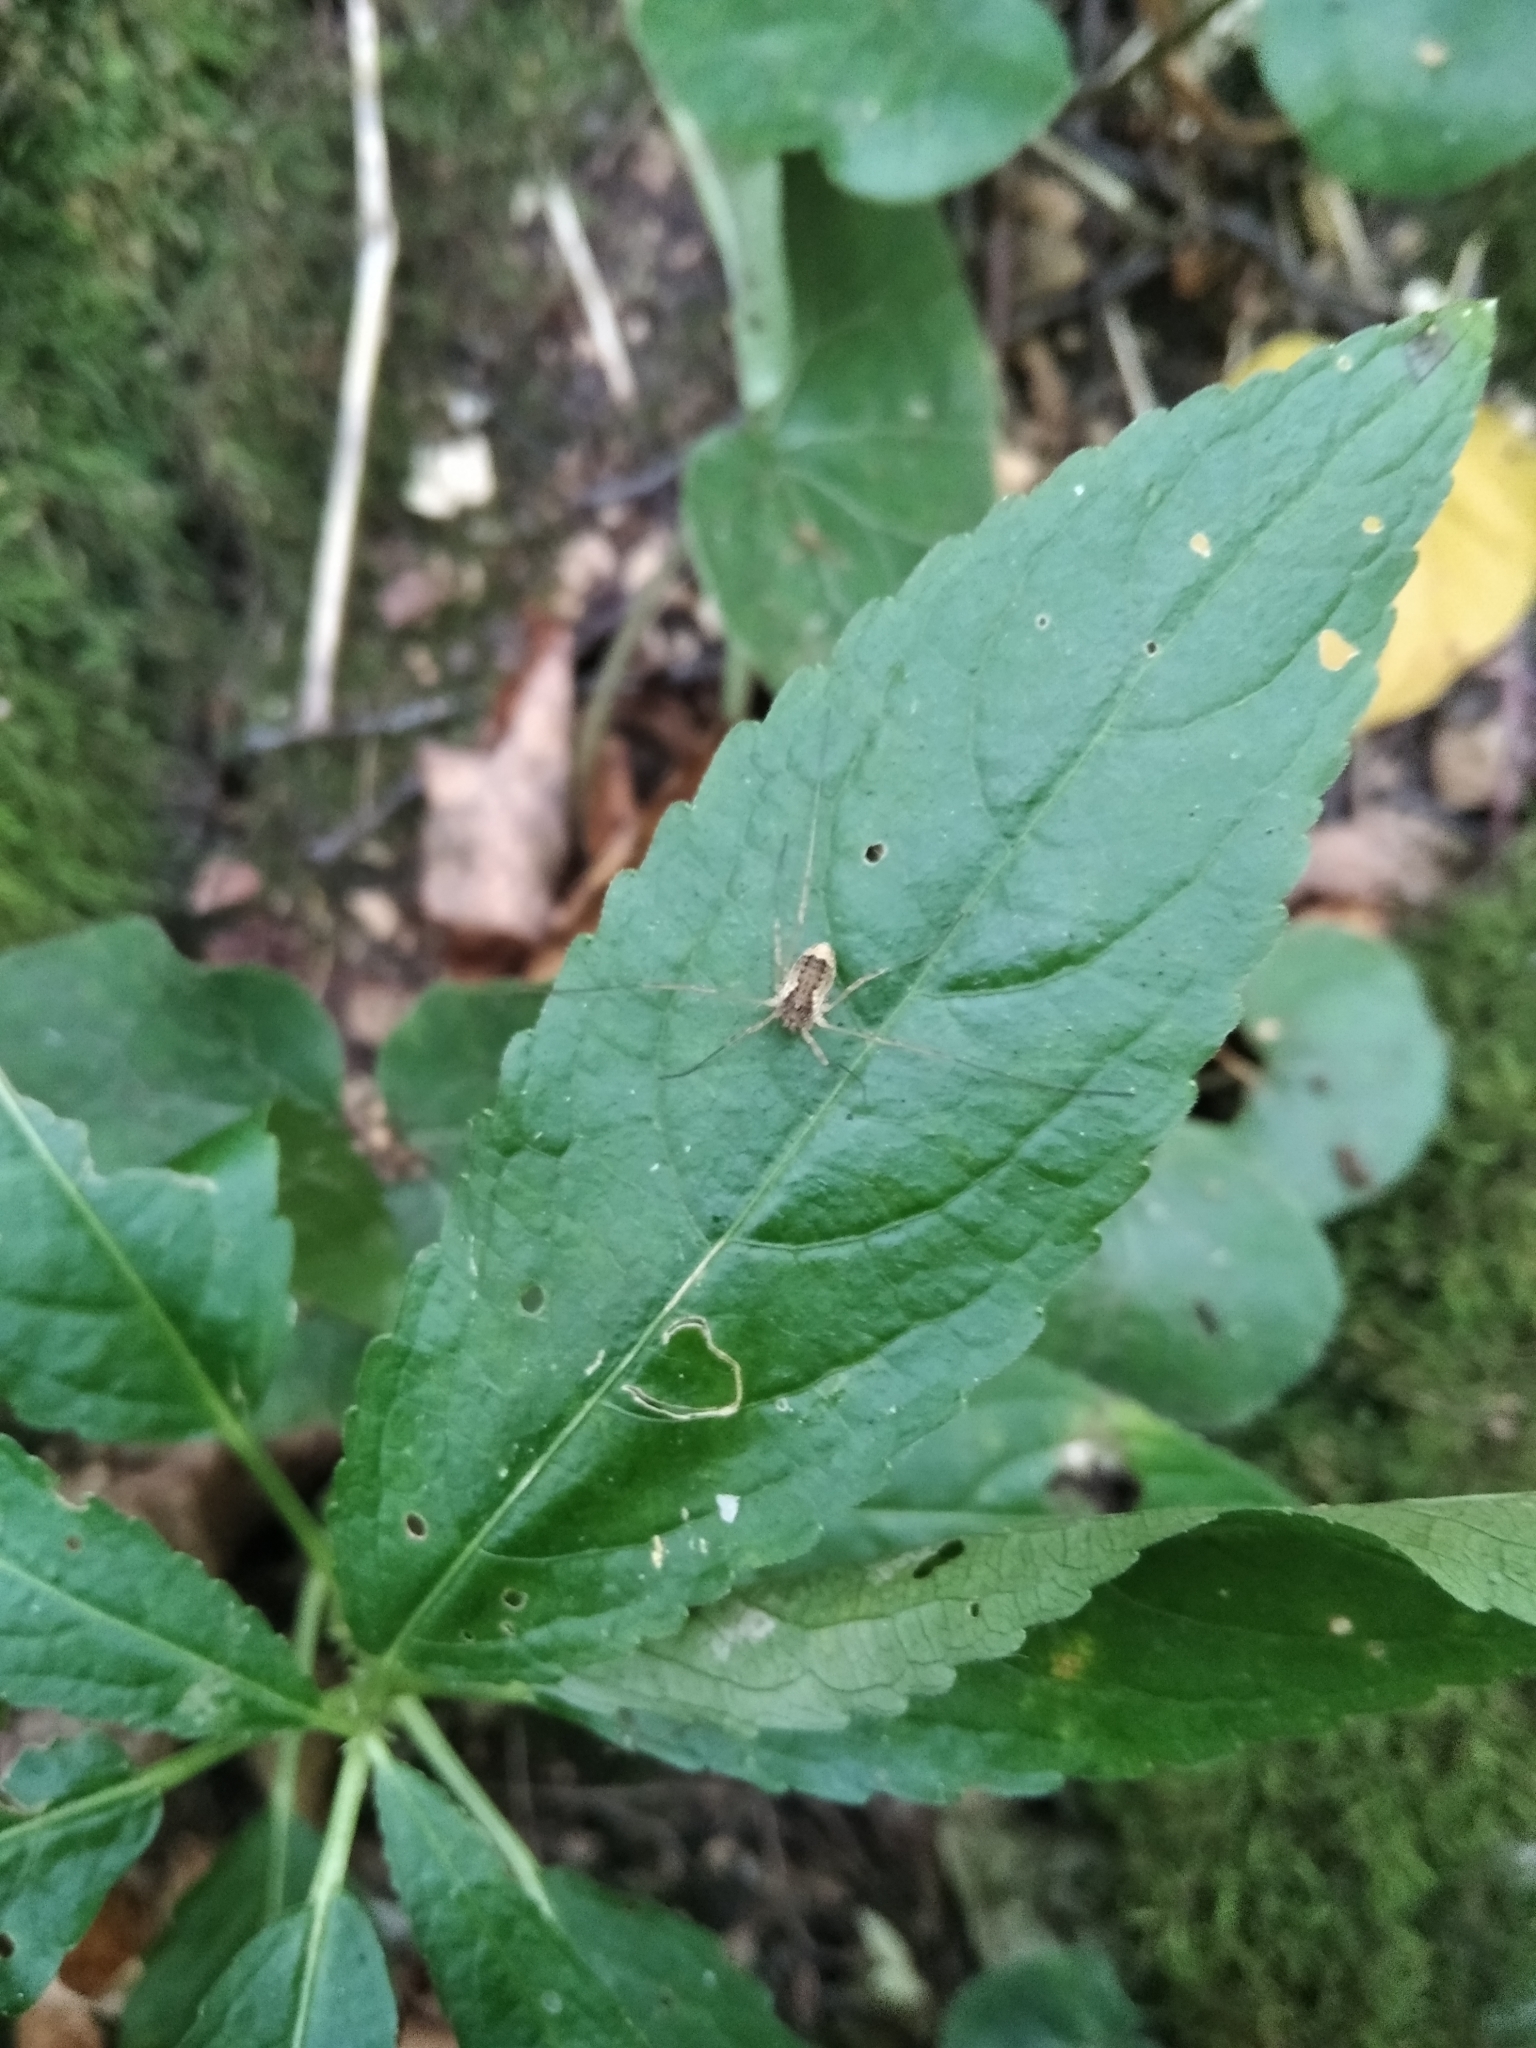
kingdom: Animalia
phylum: Arthropoda
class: Arachnida
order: Opiliones
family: Phalangiidae
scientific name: Phalangiidae
